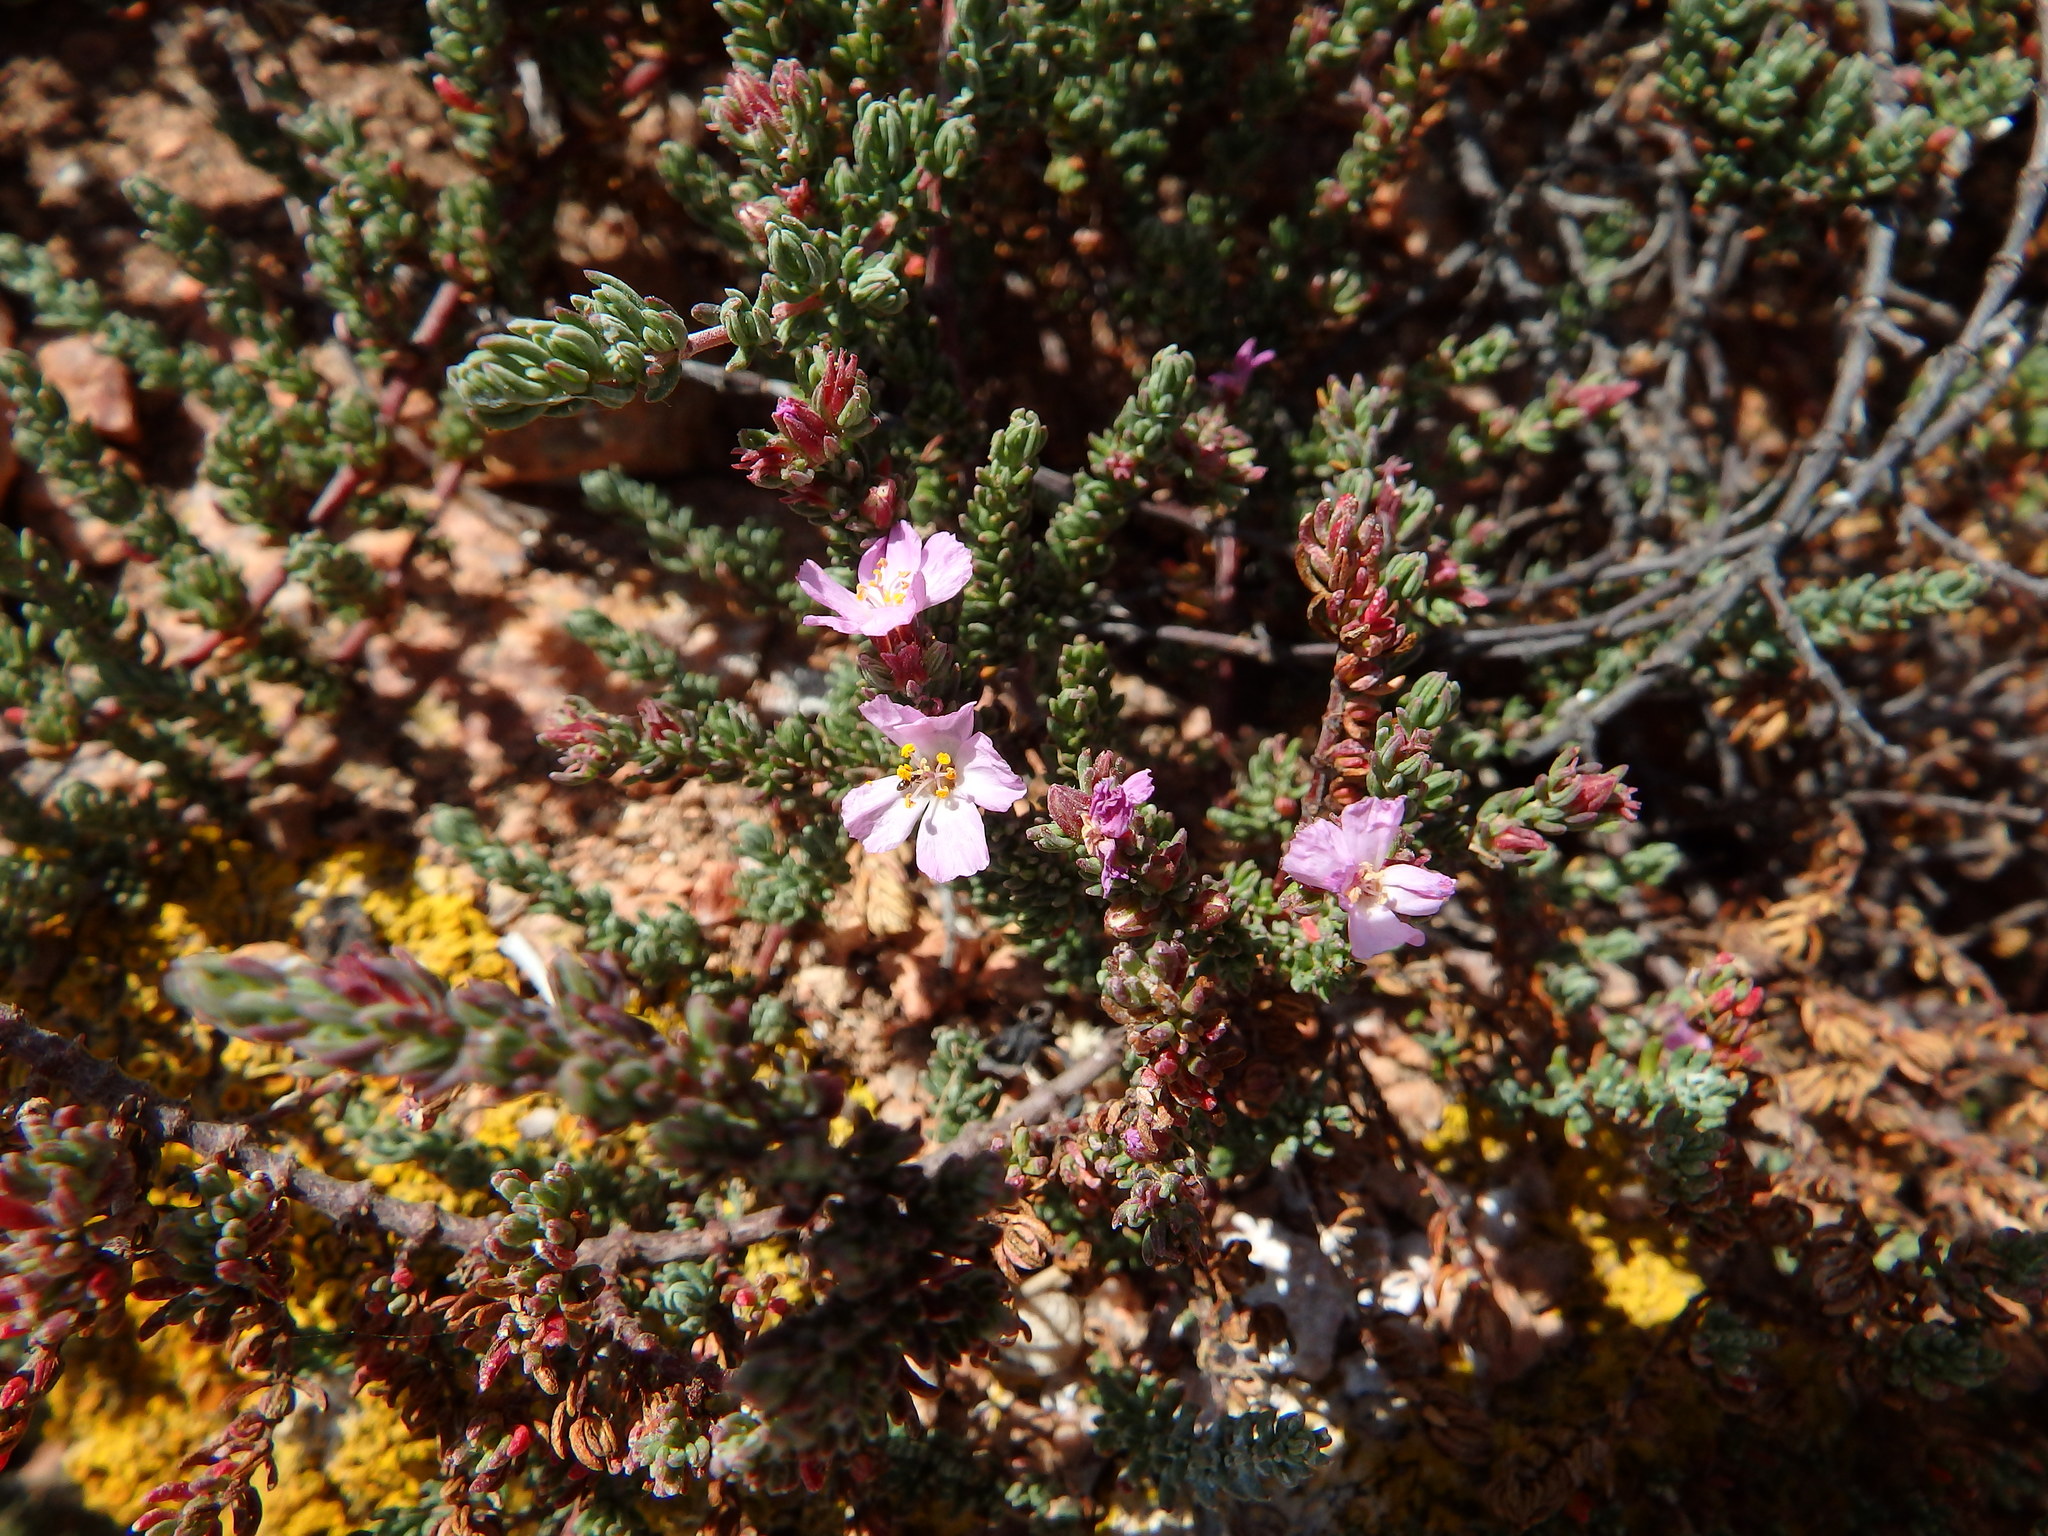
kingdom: Plantae
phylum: Tracheophyta
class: Magnoliopsida
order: Caryophyllales
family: Frankeniaceae
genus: Frankenia
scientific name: Frankenia laevis
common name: Sea-heath
